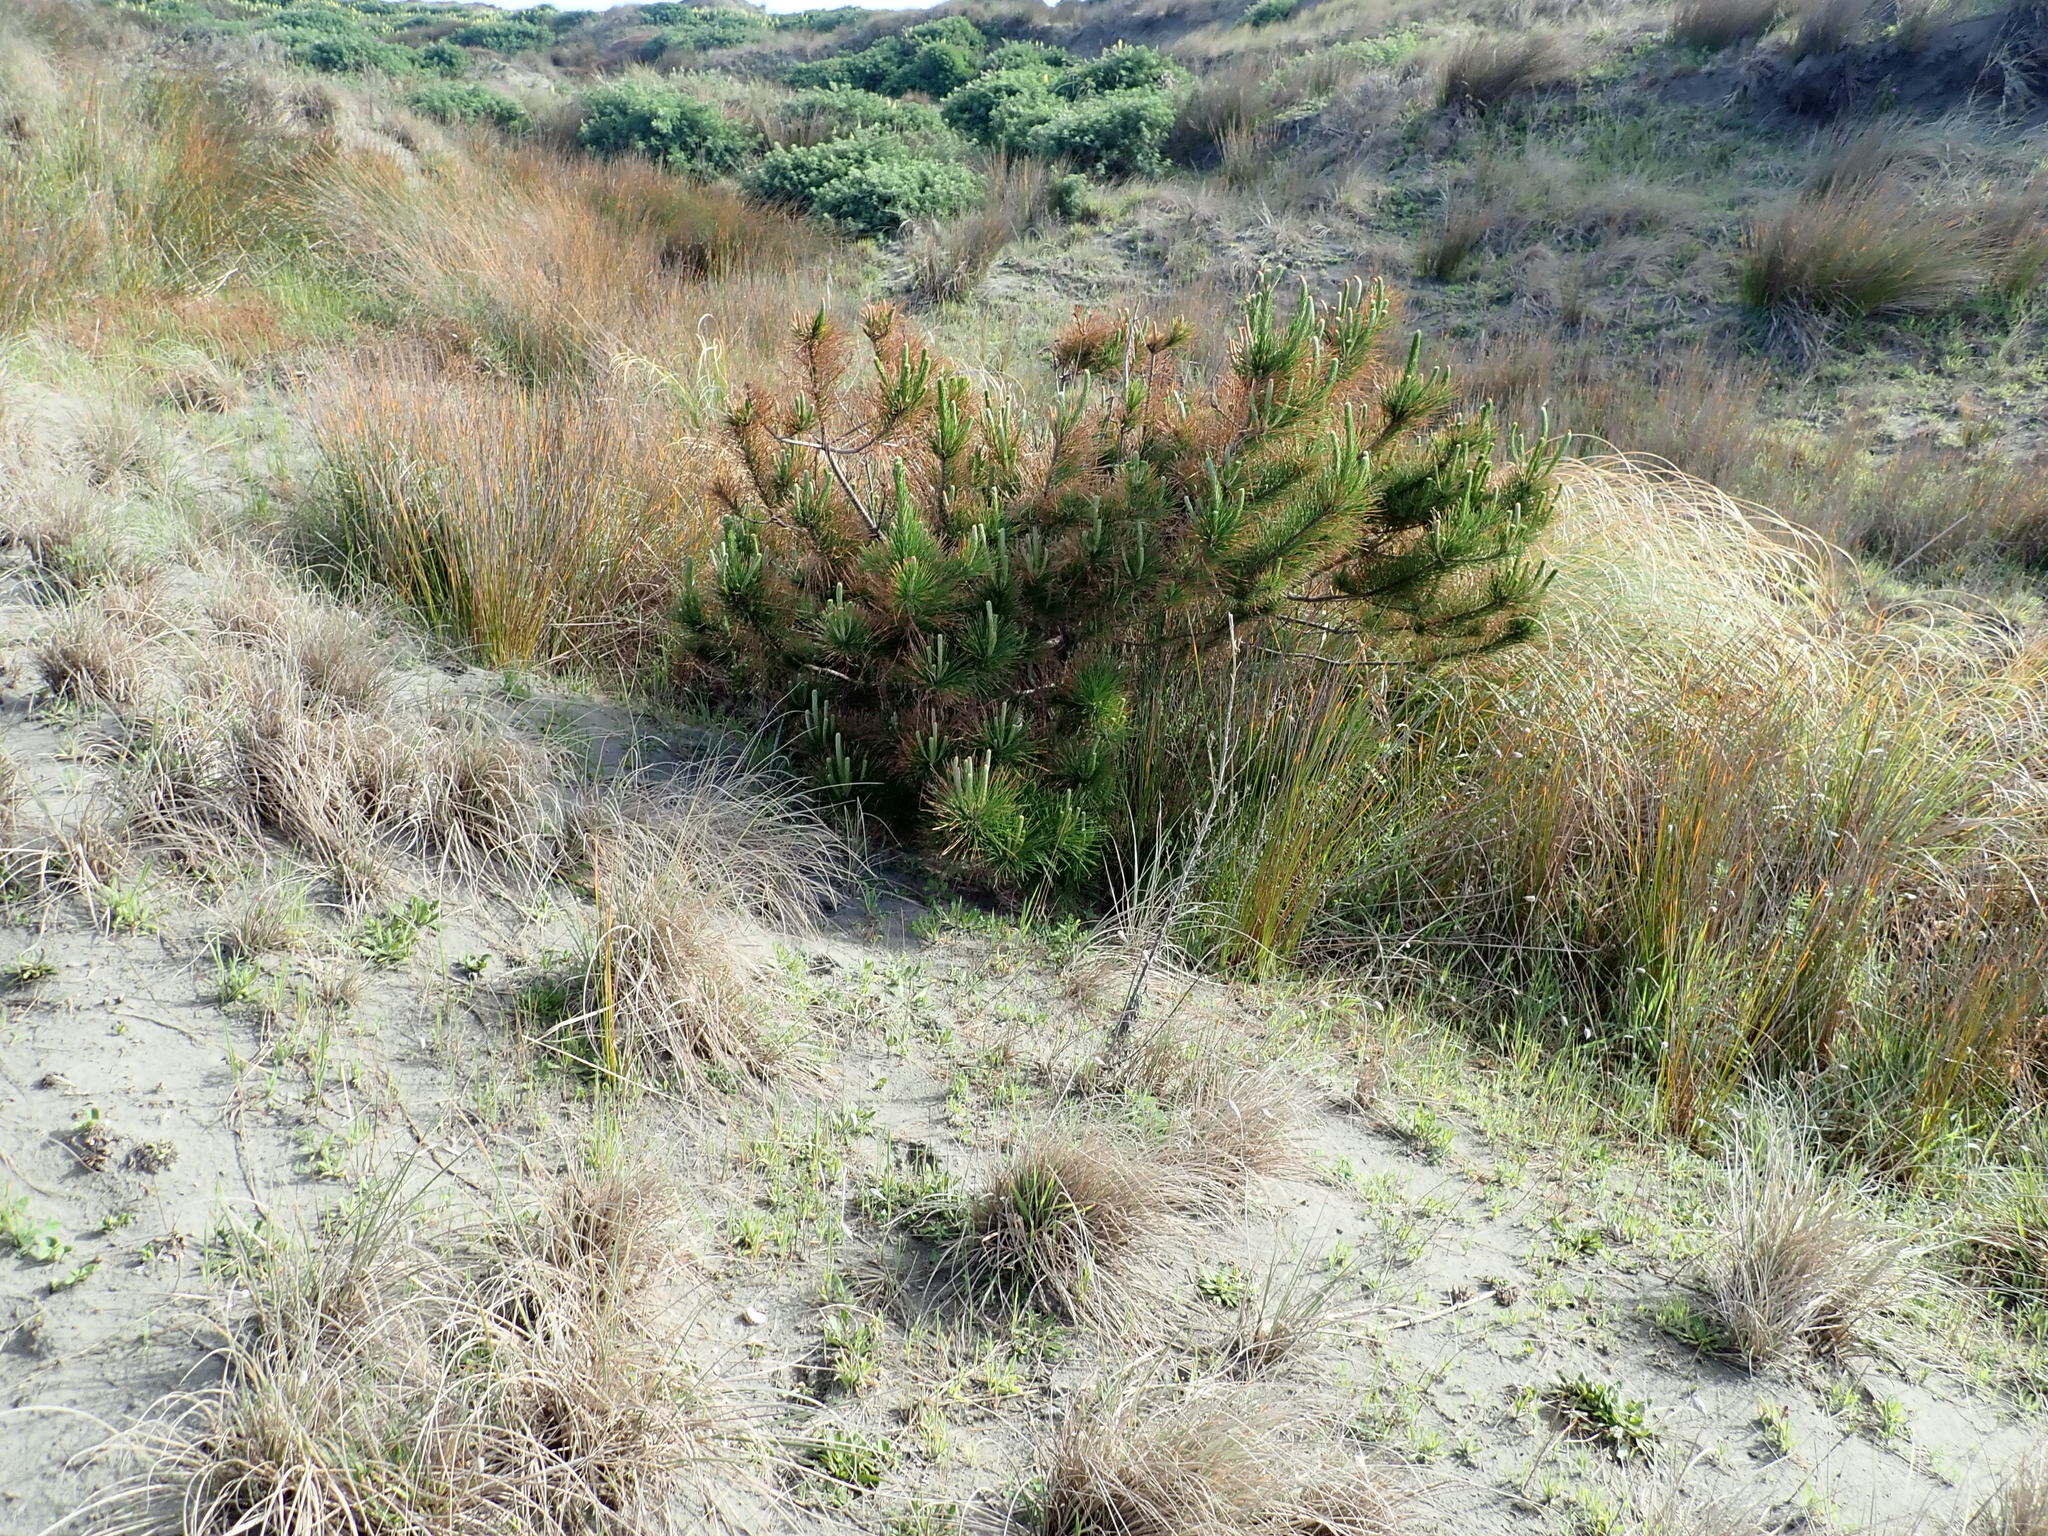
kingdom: Plantae
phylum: Tracheophyta
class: Pinopsida
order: Pinales
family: Pinaceae
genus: Pinus
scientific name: Pinus radiata
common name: Monterey pine
